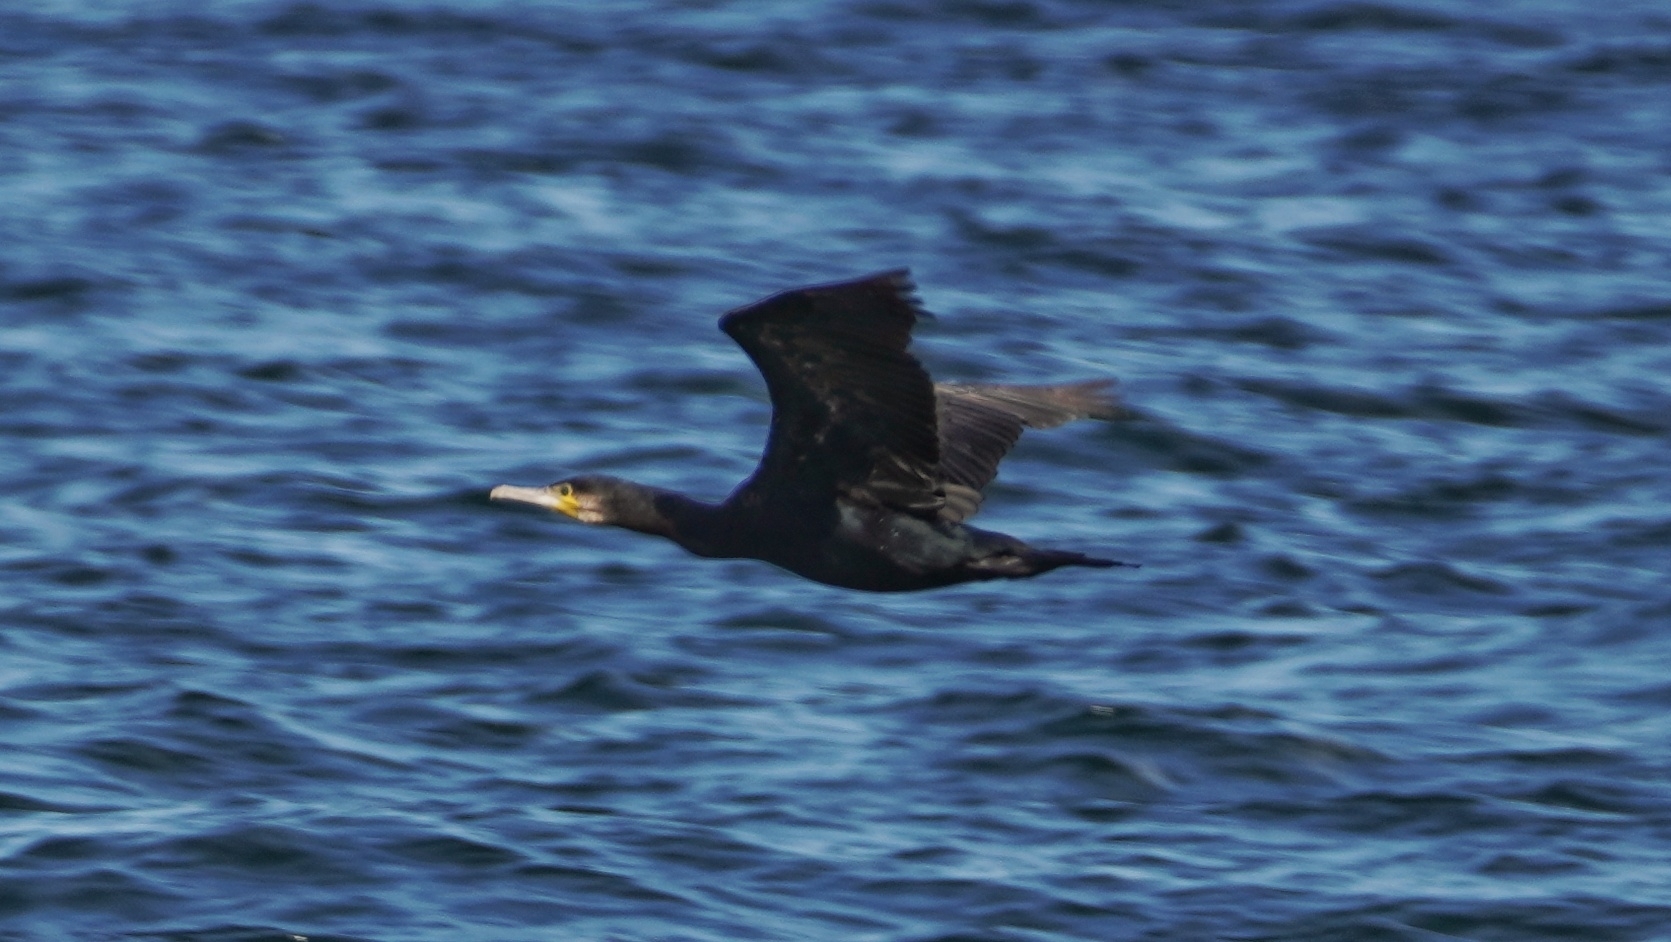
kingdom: Animalia
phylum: Chordata
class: Aves
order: Suliformes
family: Phalacrocoracidae
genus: Phalacrocorax
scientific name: Phalacrocorax carbo
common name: Great cormorant
